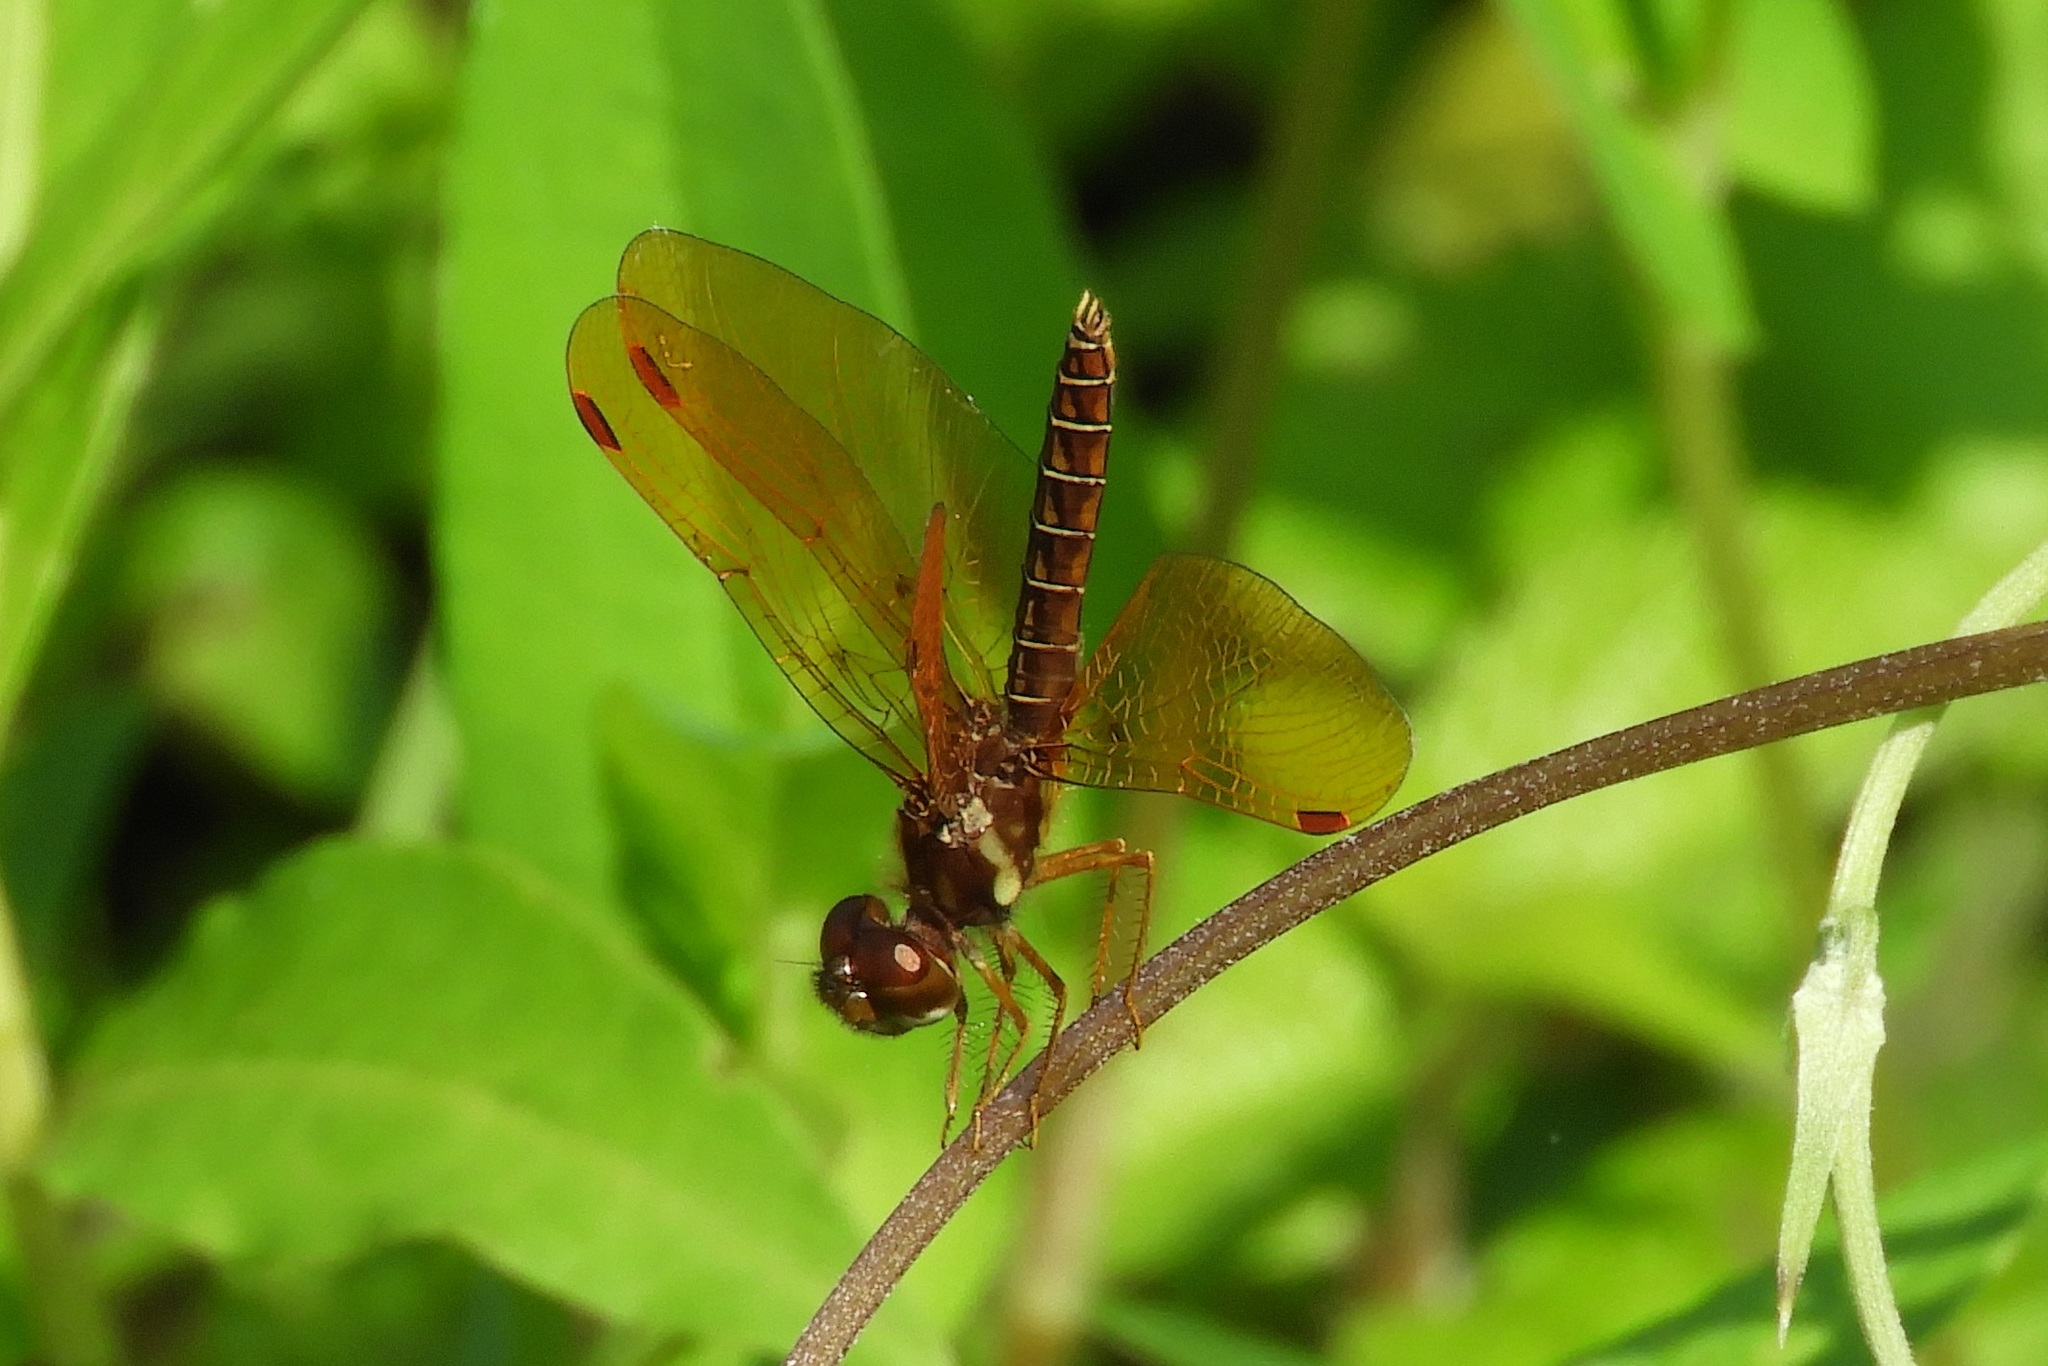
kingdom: Animalia
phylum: Arthropoda
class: Insecta
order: Odonata
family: Libellulidae
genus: Perithemis
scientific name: Perithemis tenera
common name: Eastern amberwing
